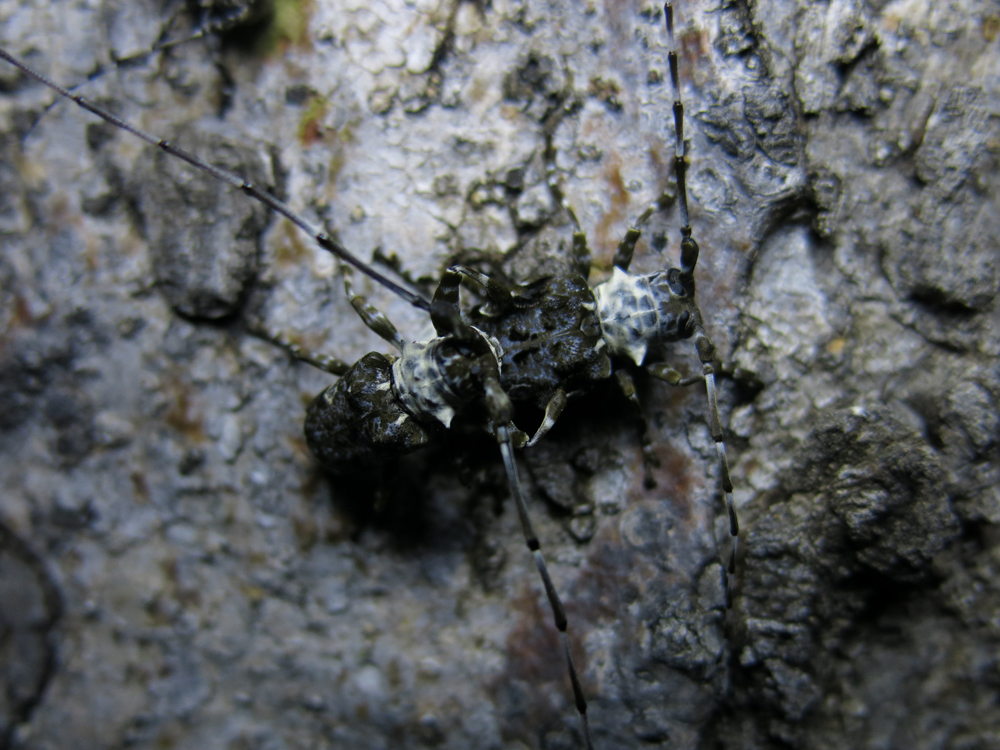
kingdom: Animalia
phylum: Arthropoda
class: Insecta
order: Coleoptera
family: Cerambycidae
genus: Lasiopezus
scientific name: Lasiopezus longimanus
